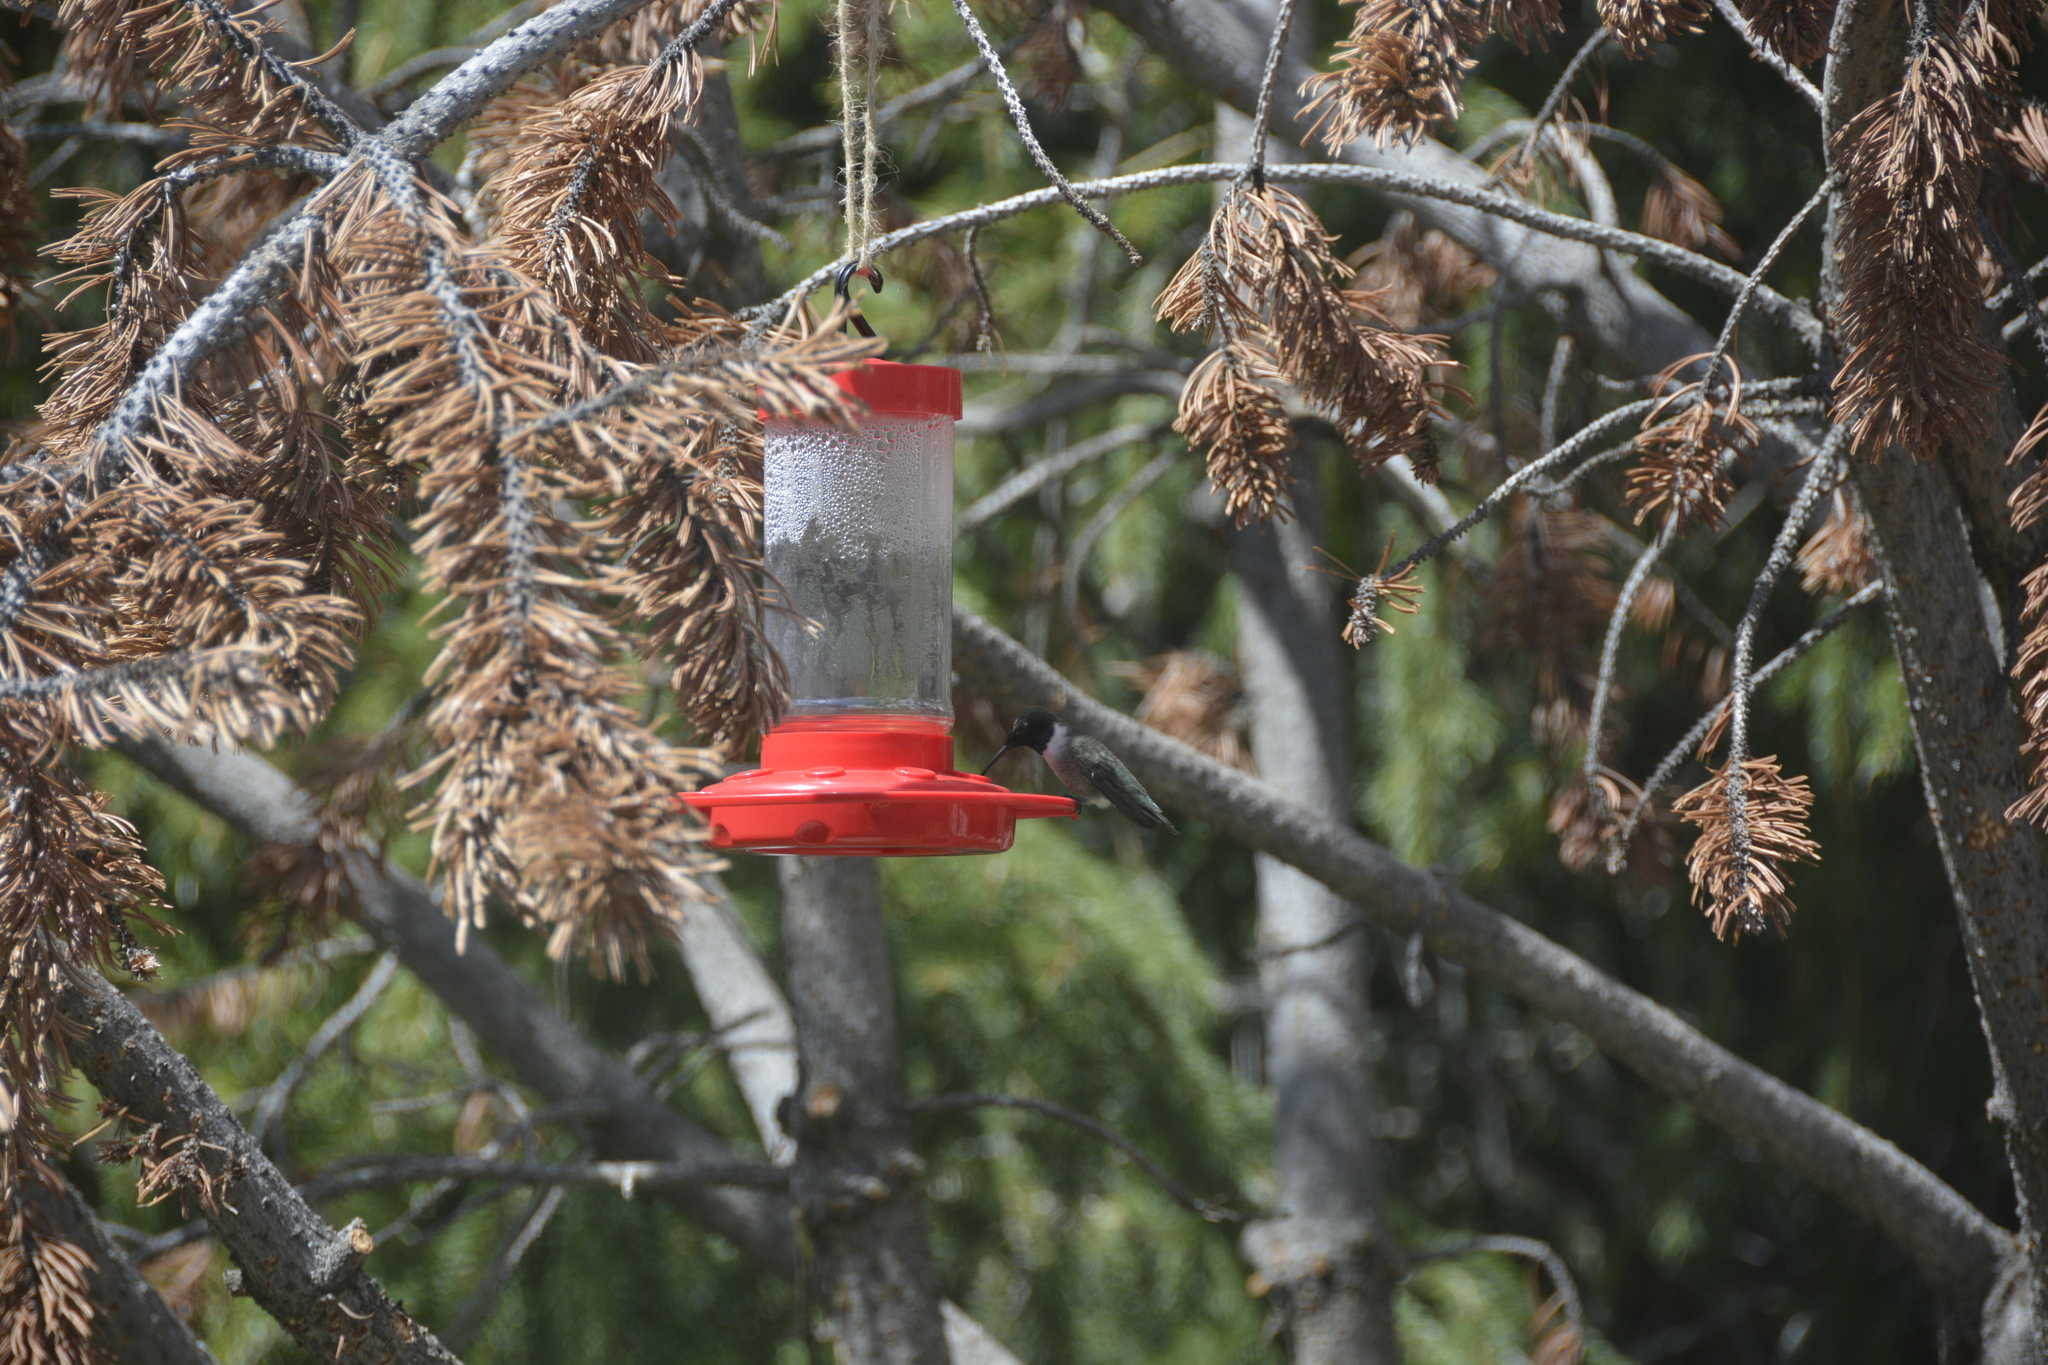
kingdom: Animalia
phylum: Chordata
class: Aves
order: Apodiformes
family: Trochilidae
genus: Archilochus
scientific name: Archilochus alexandri
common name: Black-chinned hummingbird
